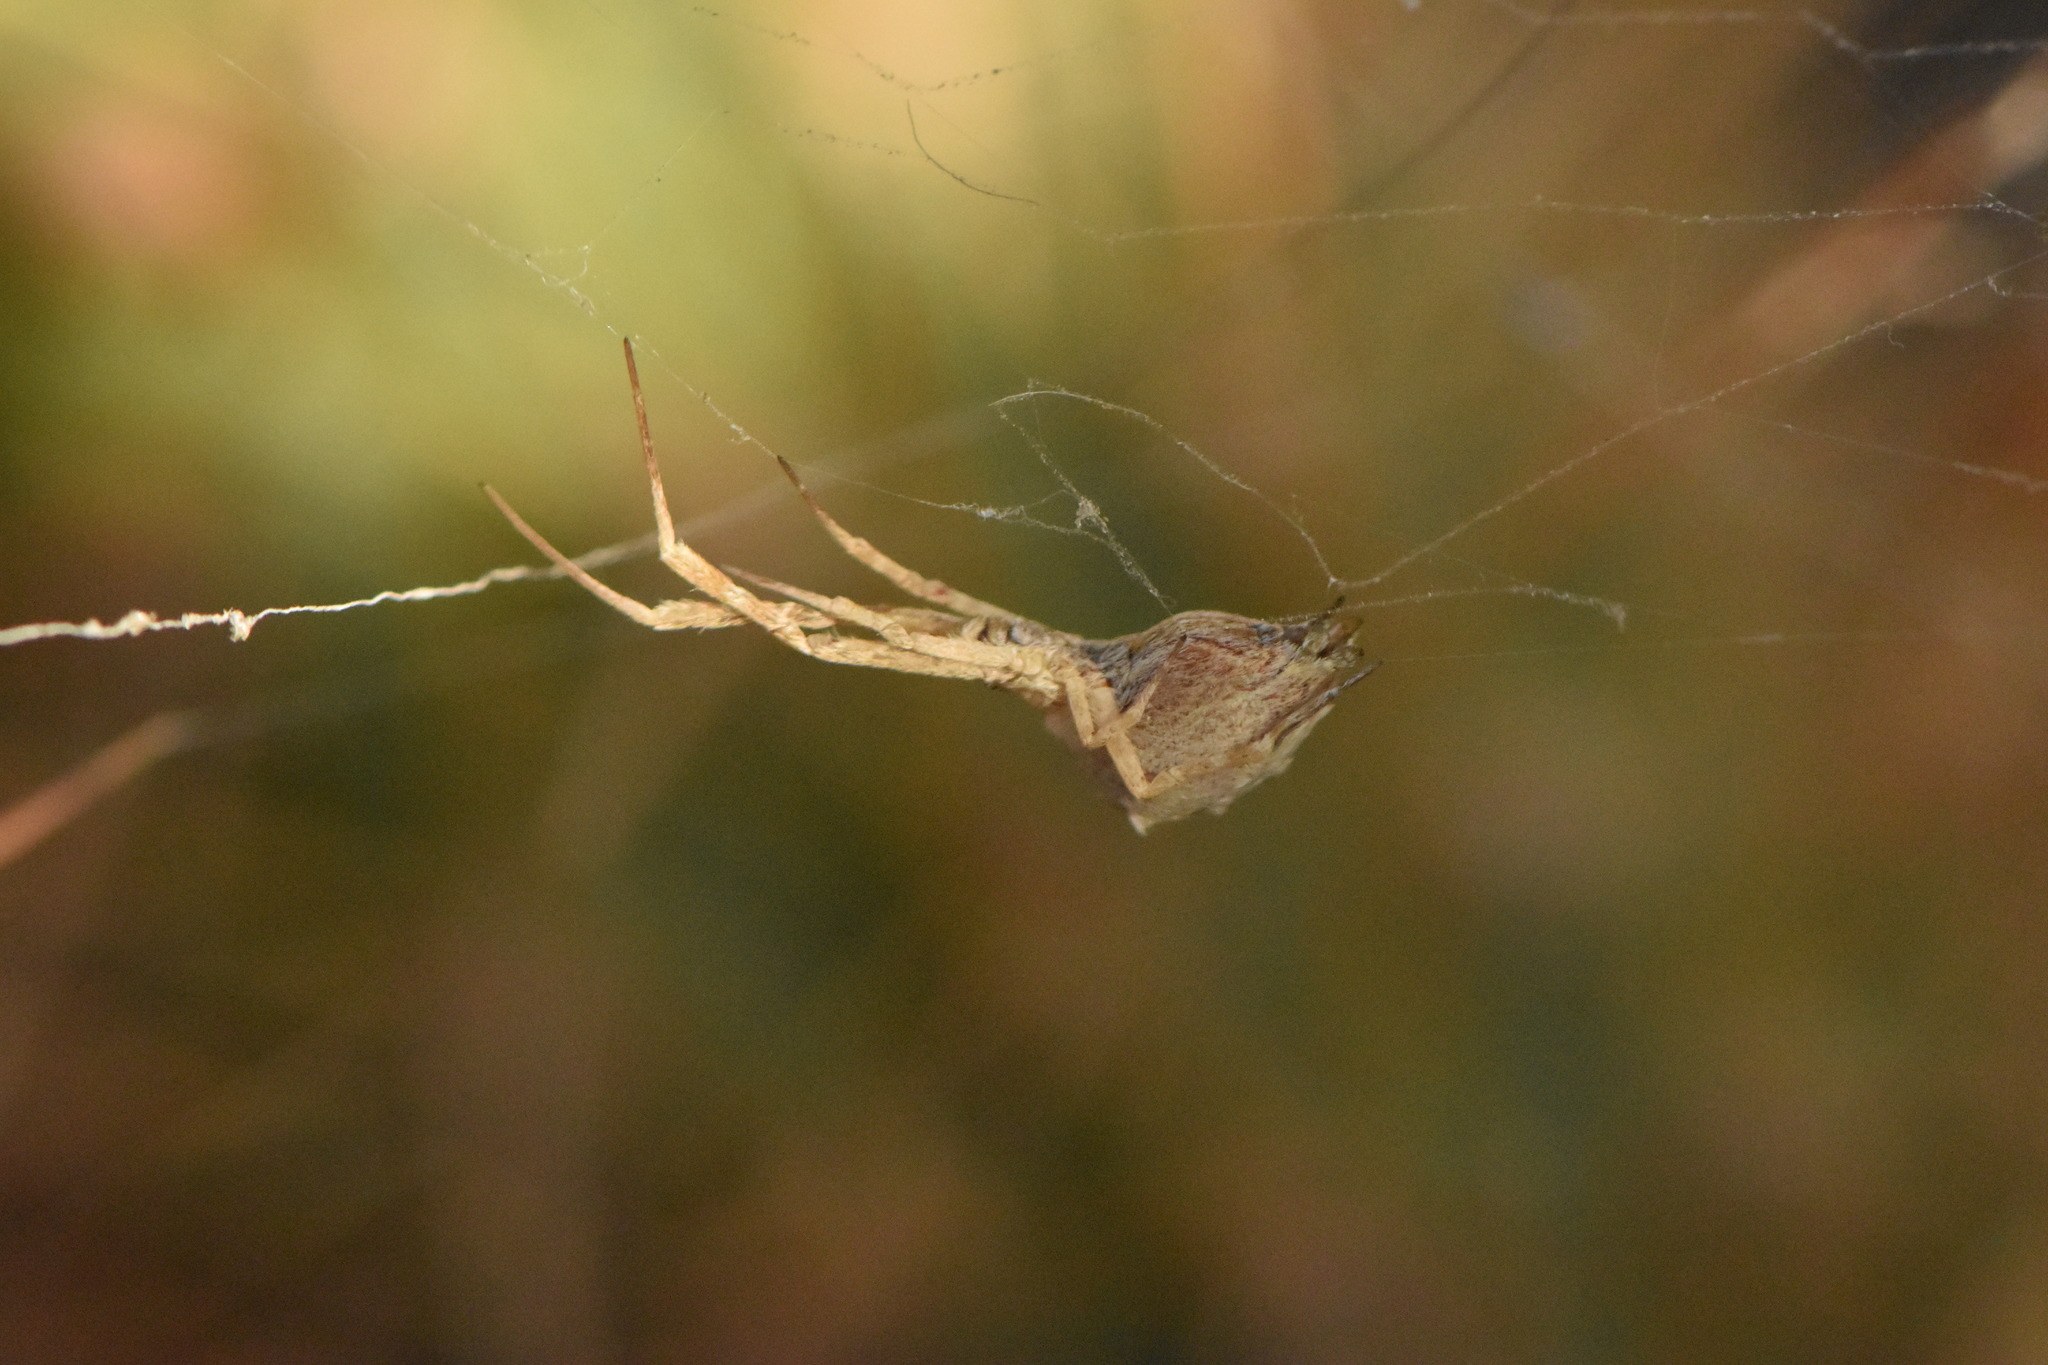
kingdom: Animalia
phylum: Arthropoda
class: Arachnida
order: Araneae
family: Uloboridae
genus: Uloborus
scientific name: Uloborus walckenaerius
